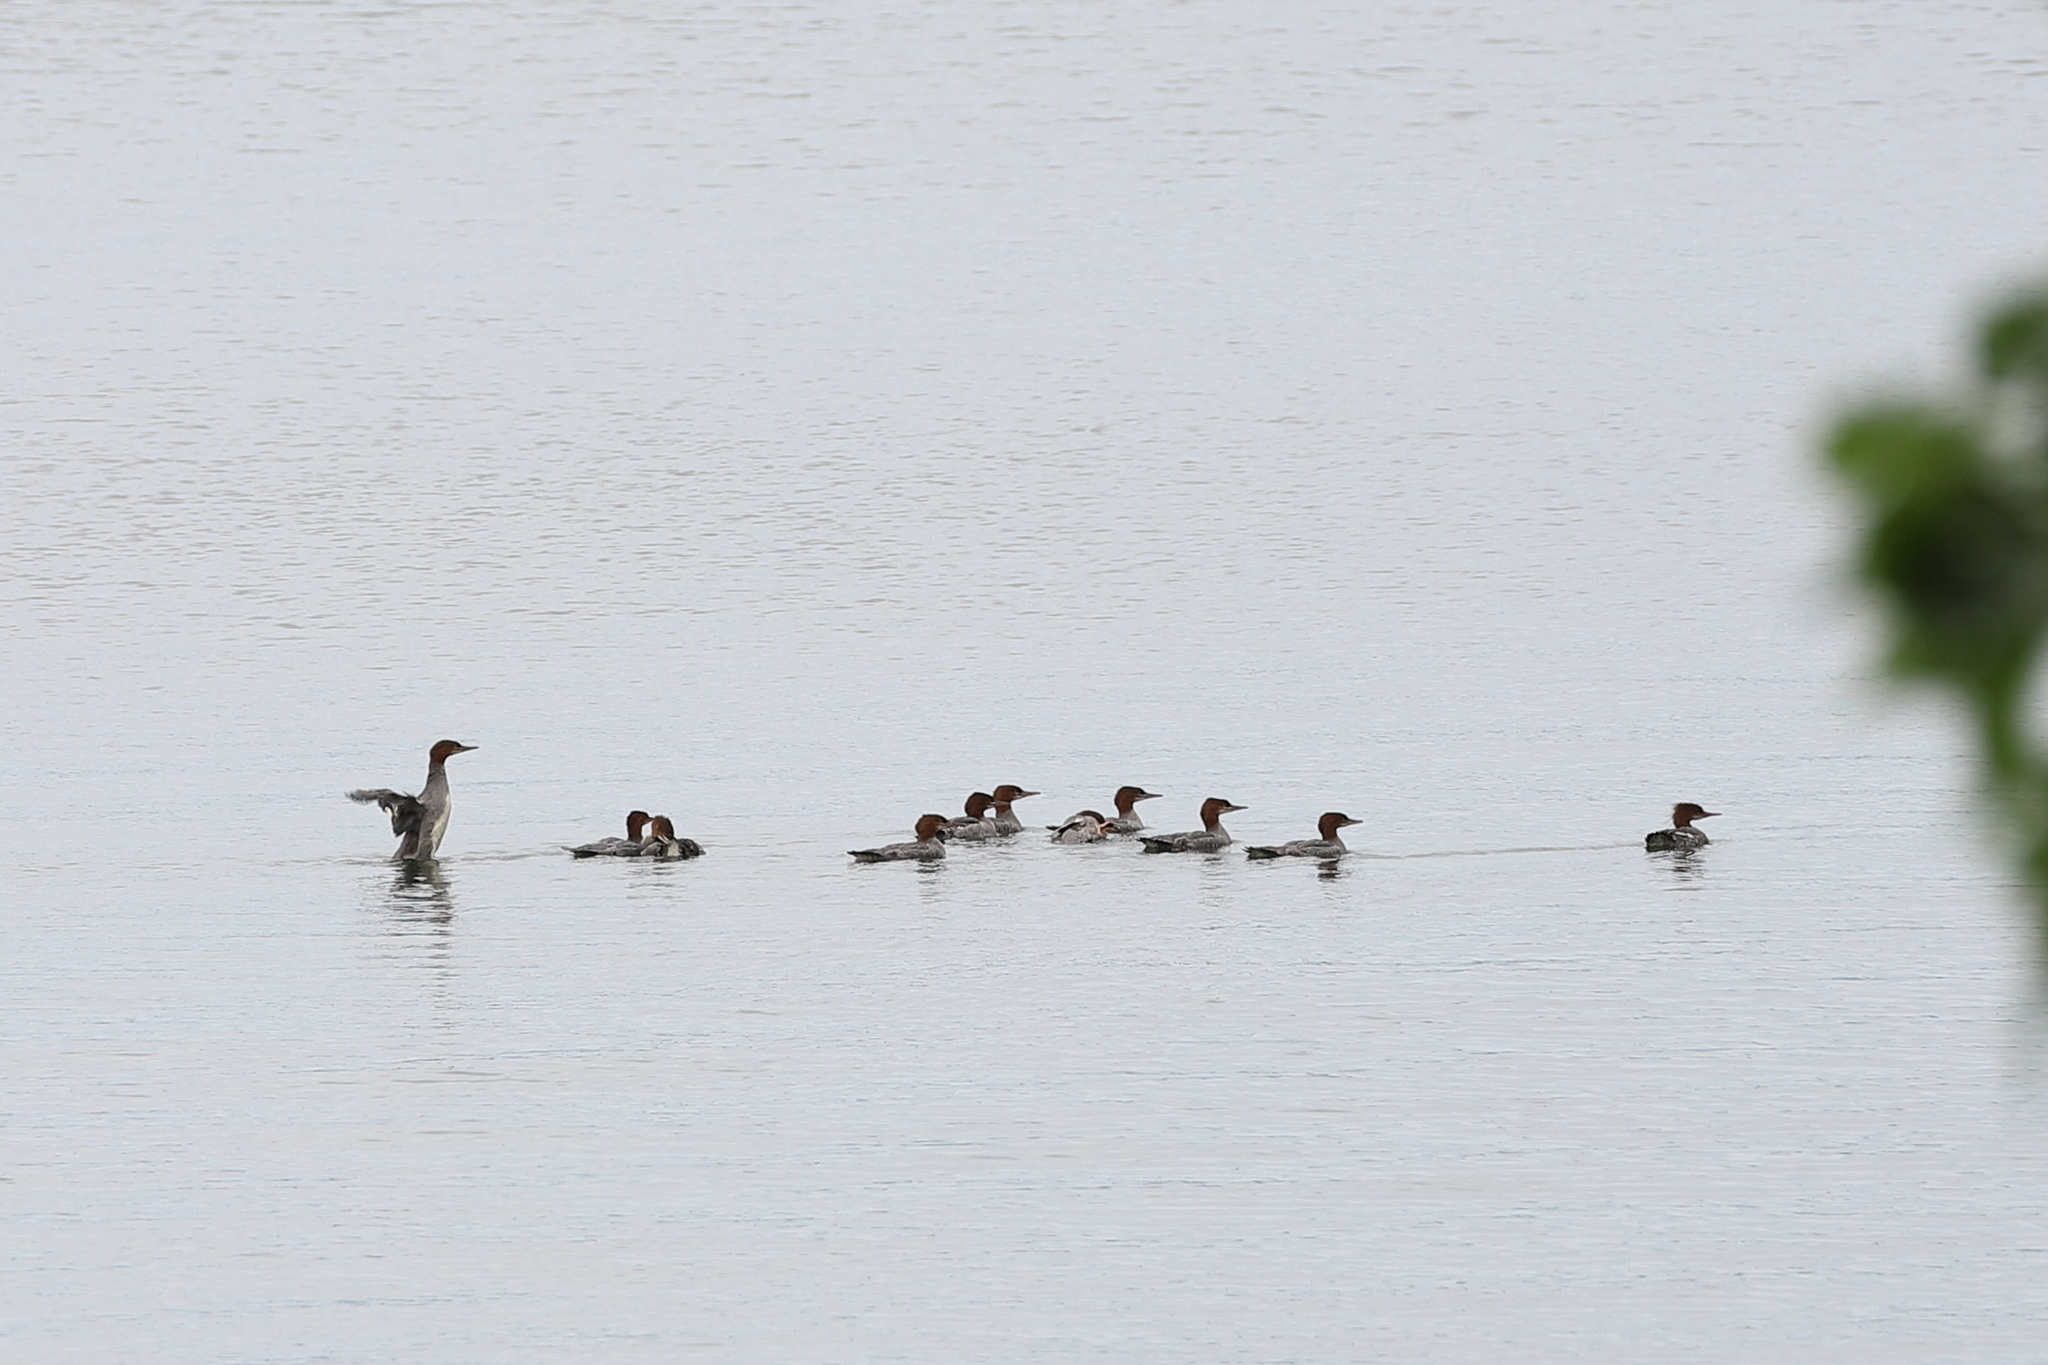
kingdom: Animalia
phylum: Chordata
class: Aves
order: Anseriformes
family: Anatidae
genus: Mergus
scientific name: Mergus merganser
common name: Common merganser
